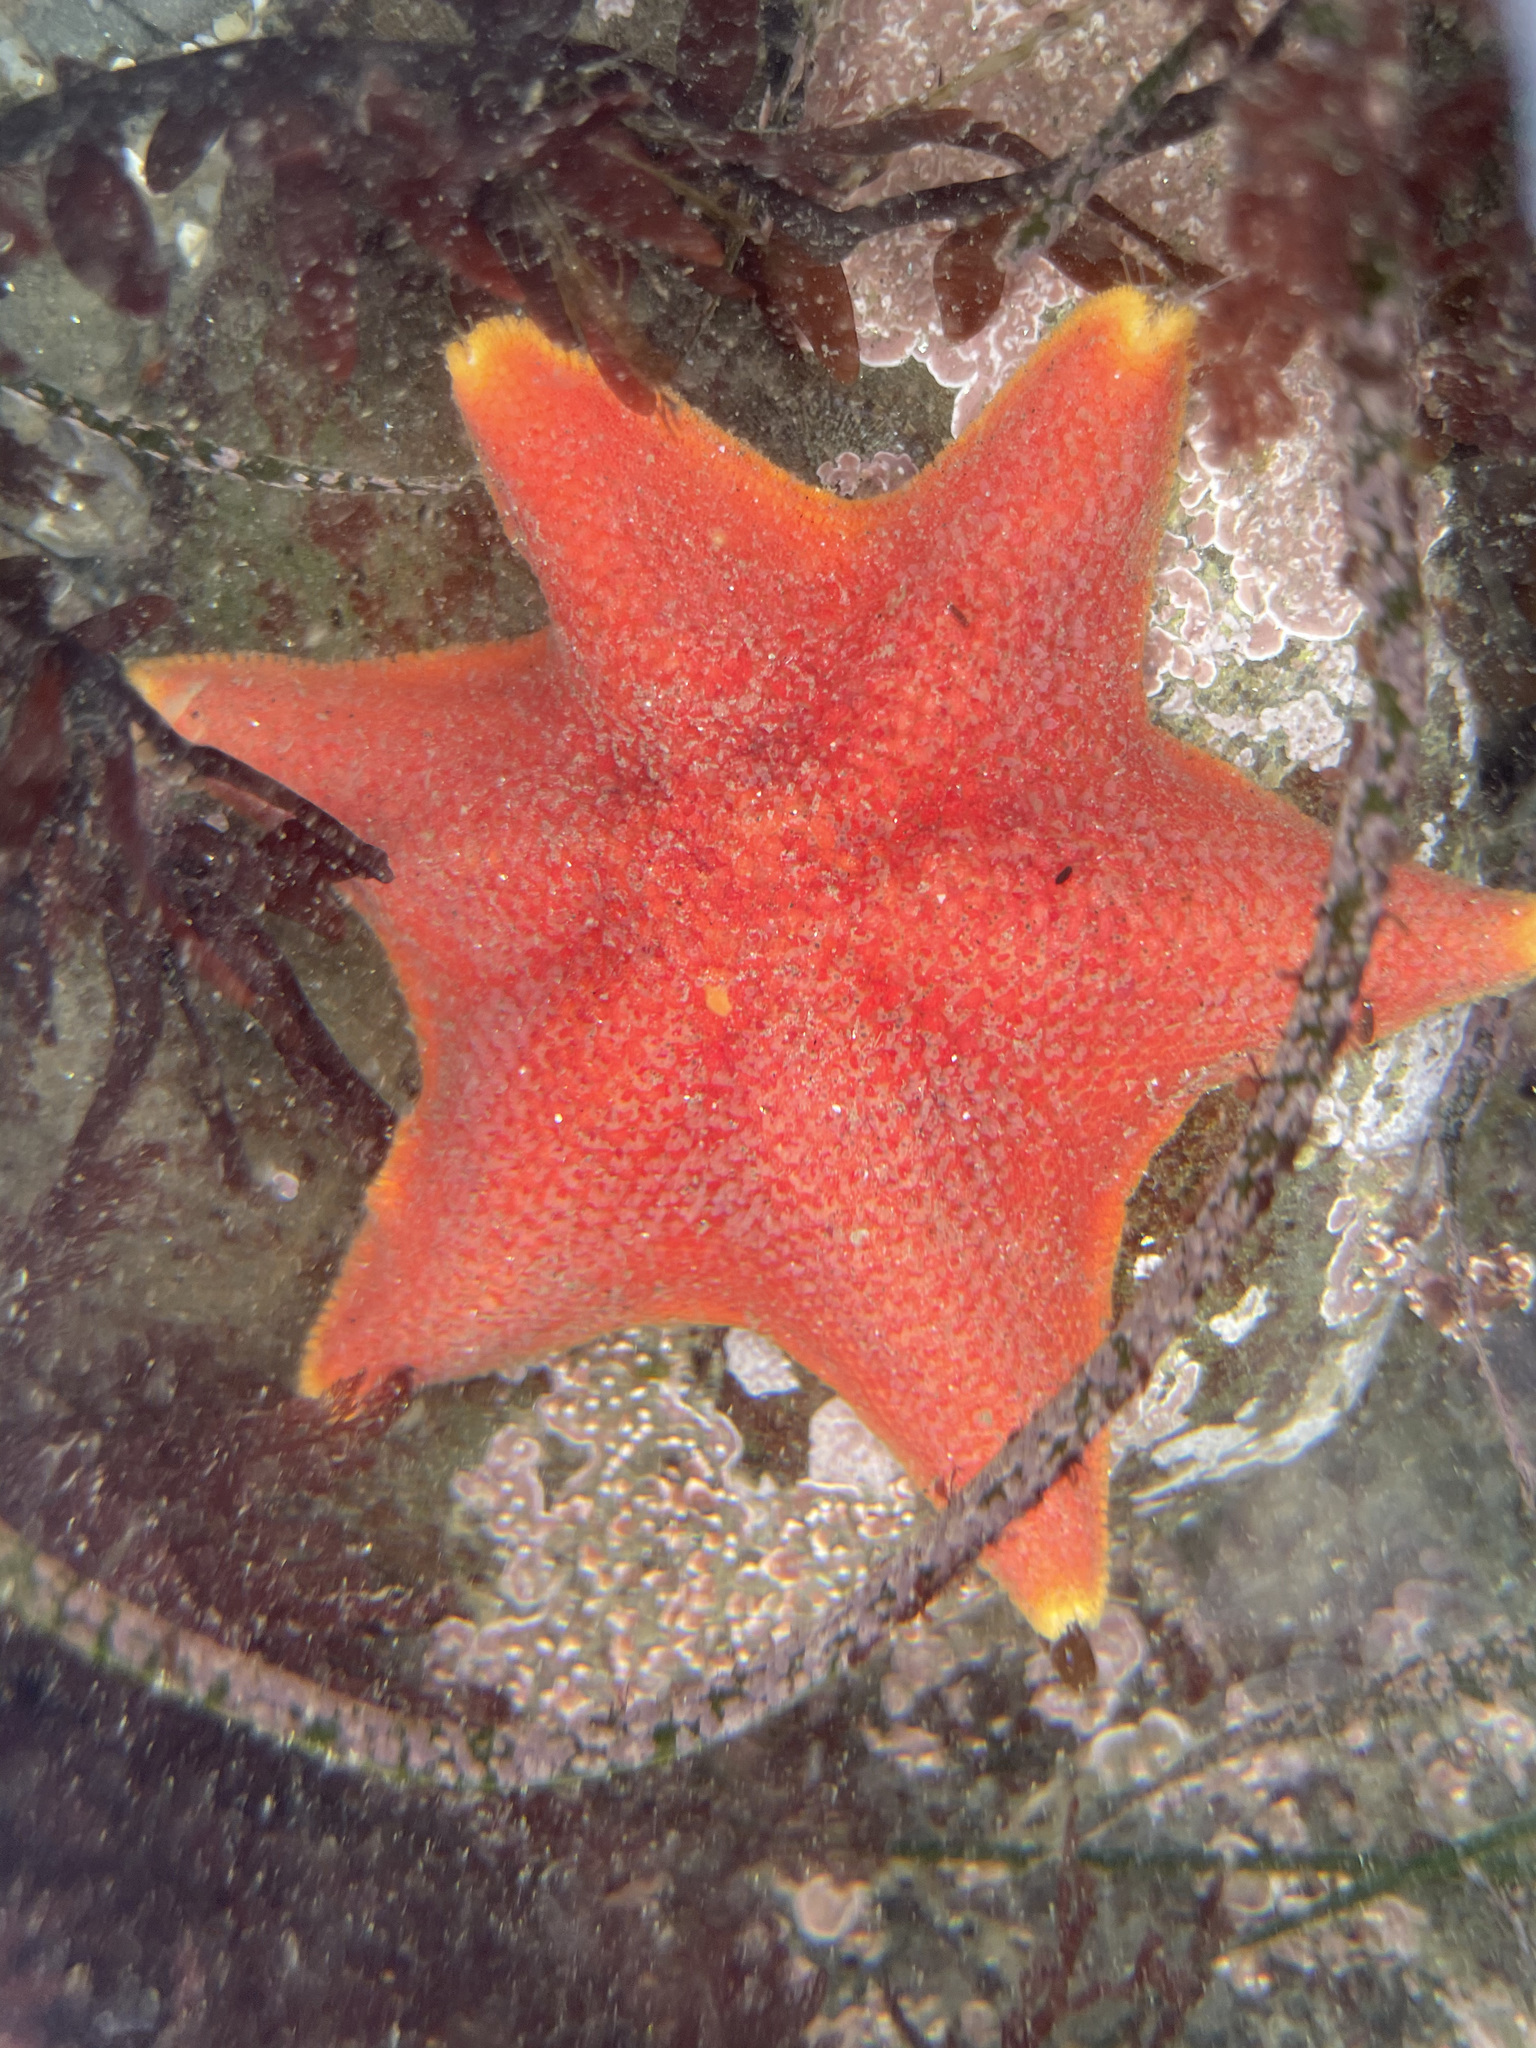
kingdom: Animalia
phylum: Echinodermata
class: Asteroidea
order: Valvatida
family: Asterinidae
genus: Patiria
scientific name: Patiria miniata
